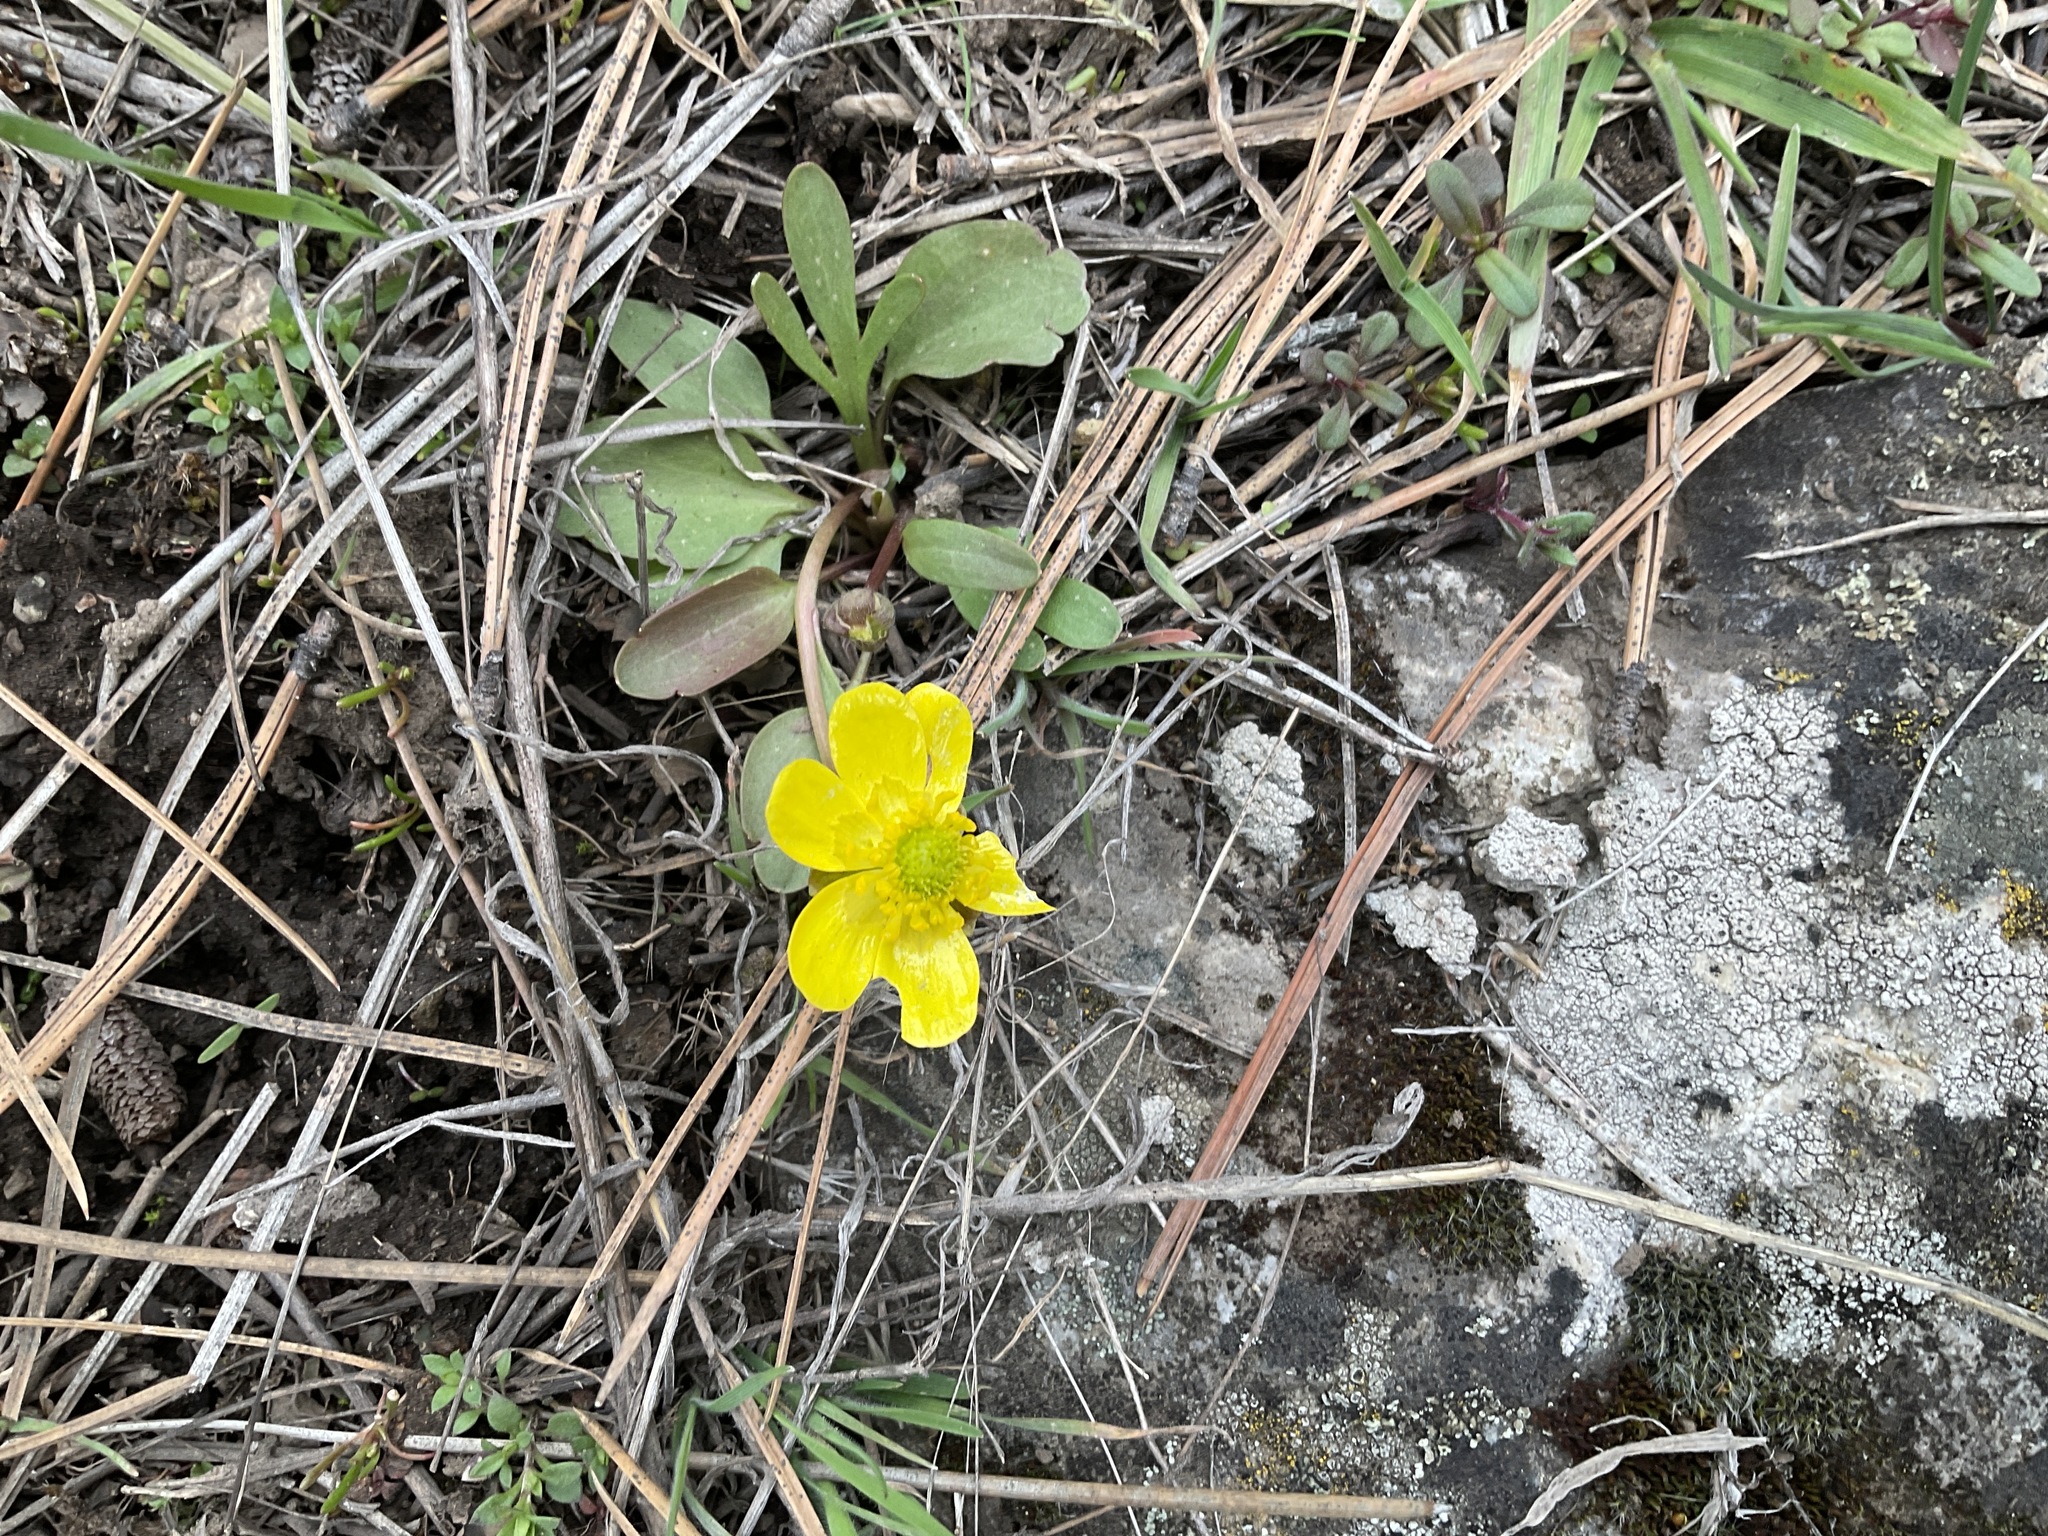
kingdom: Plantae
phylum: Tracheophyta
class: Magnoliopsida
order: Ranunculales
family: Ranunculaceae
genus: Ranunculus
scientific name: Ranunculus glaberrimus
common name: Sagebrush buttercup
